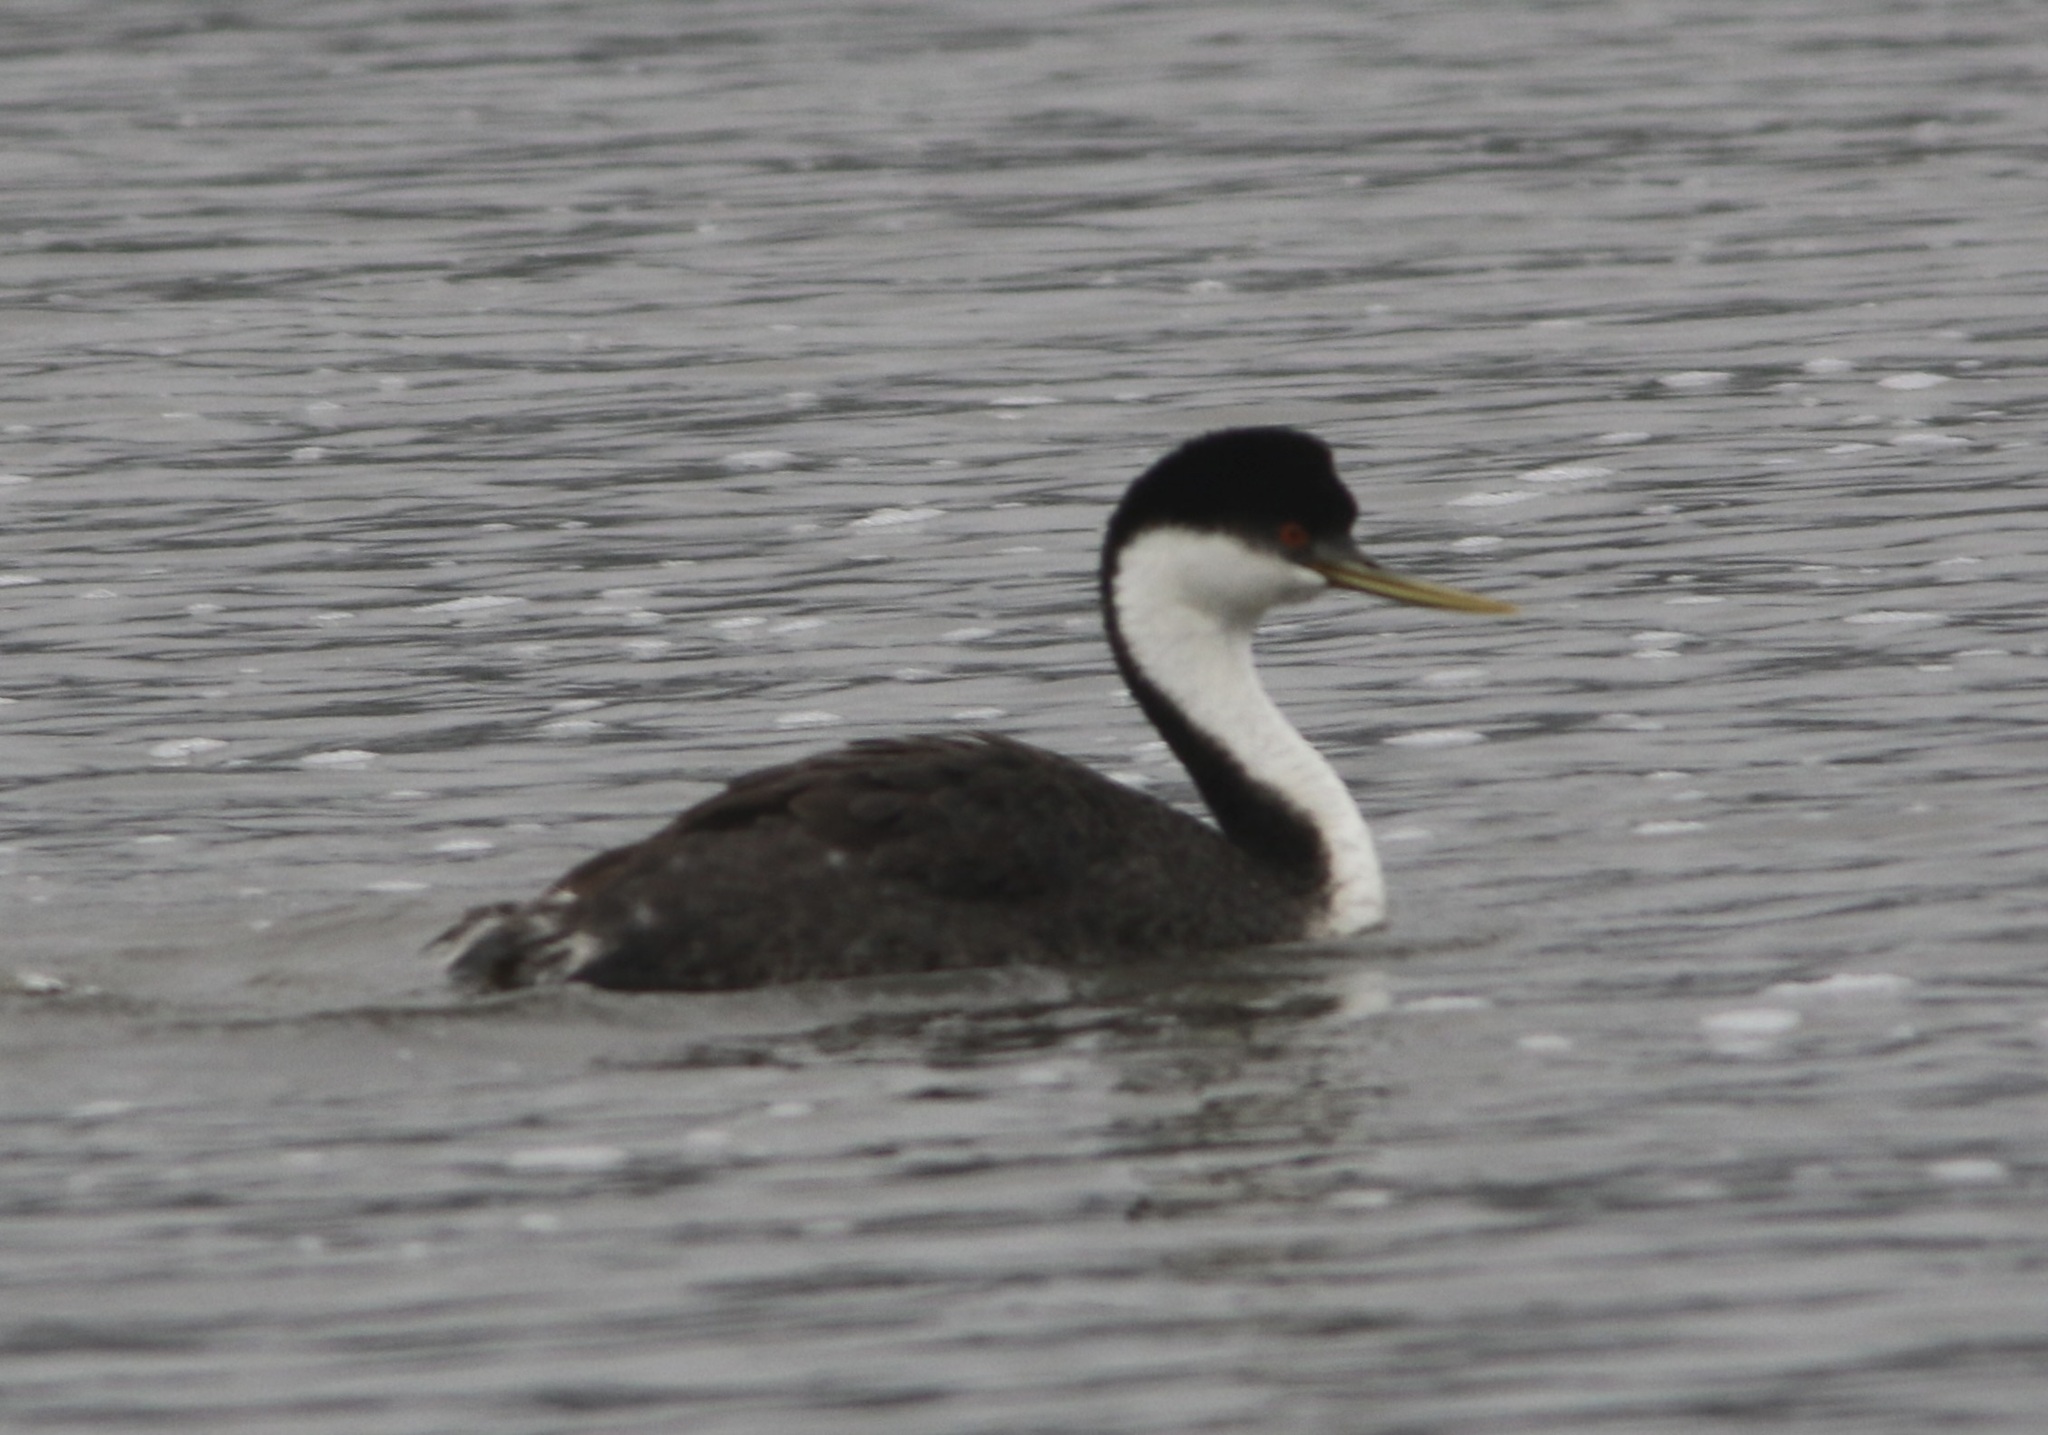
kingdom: Animalia
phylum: Chordata
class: Aves
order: Podicipediformes
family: Podicipedidae
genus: Aechmophorus
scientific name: Aechmophorus occidentalis
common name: Western grebe
